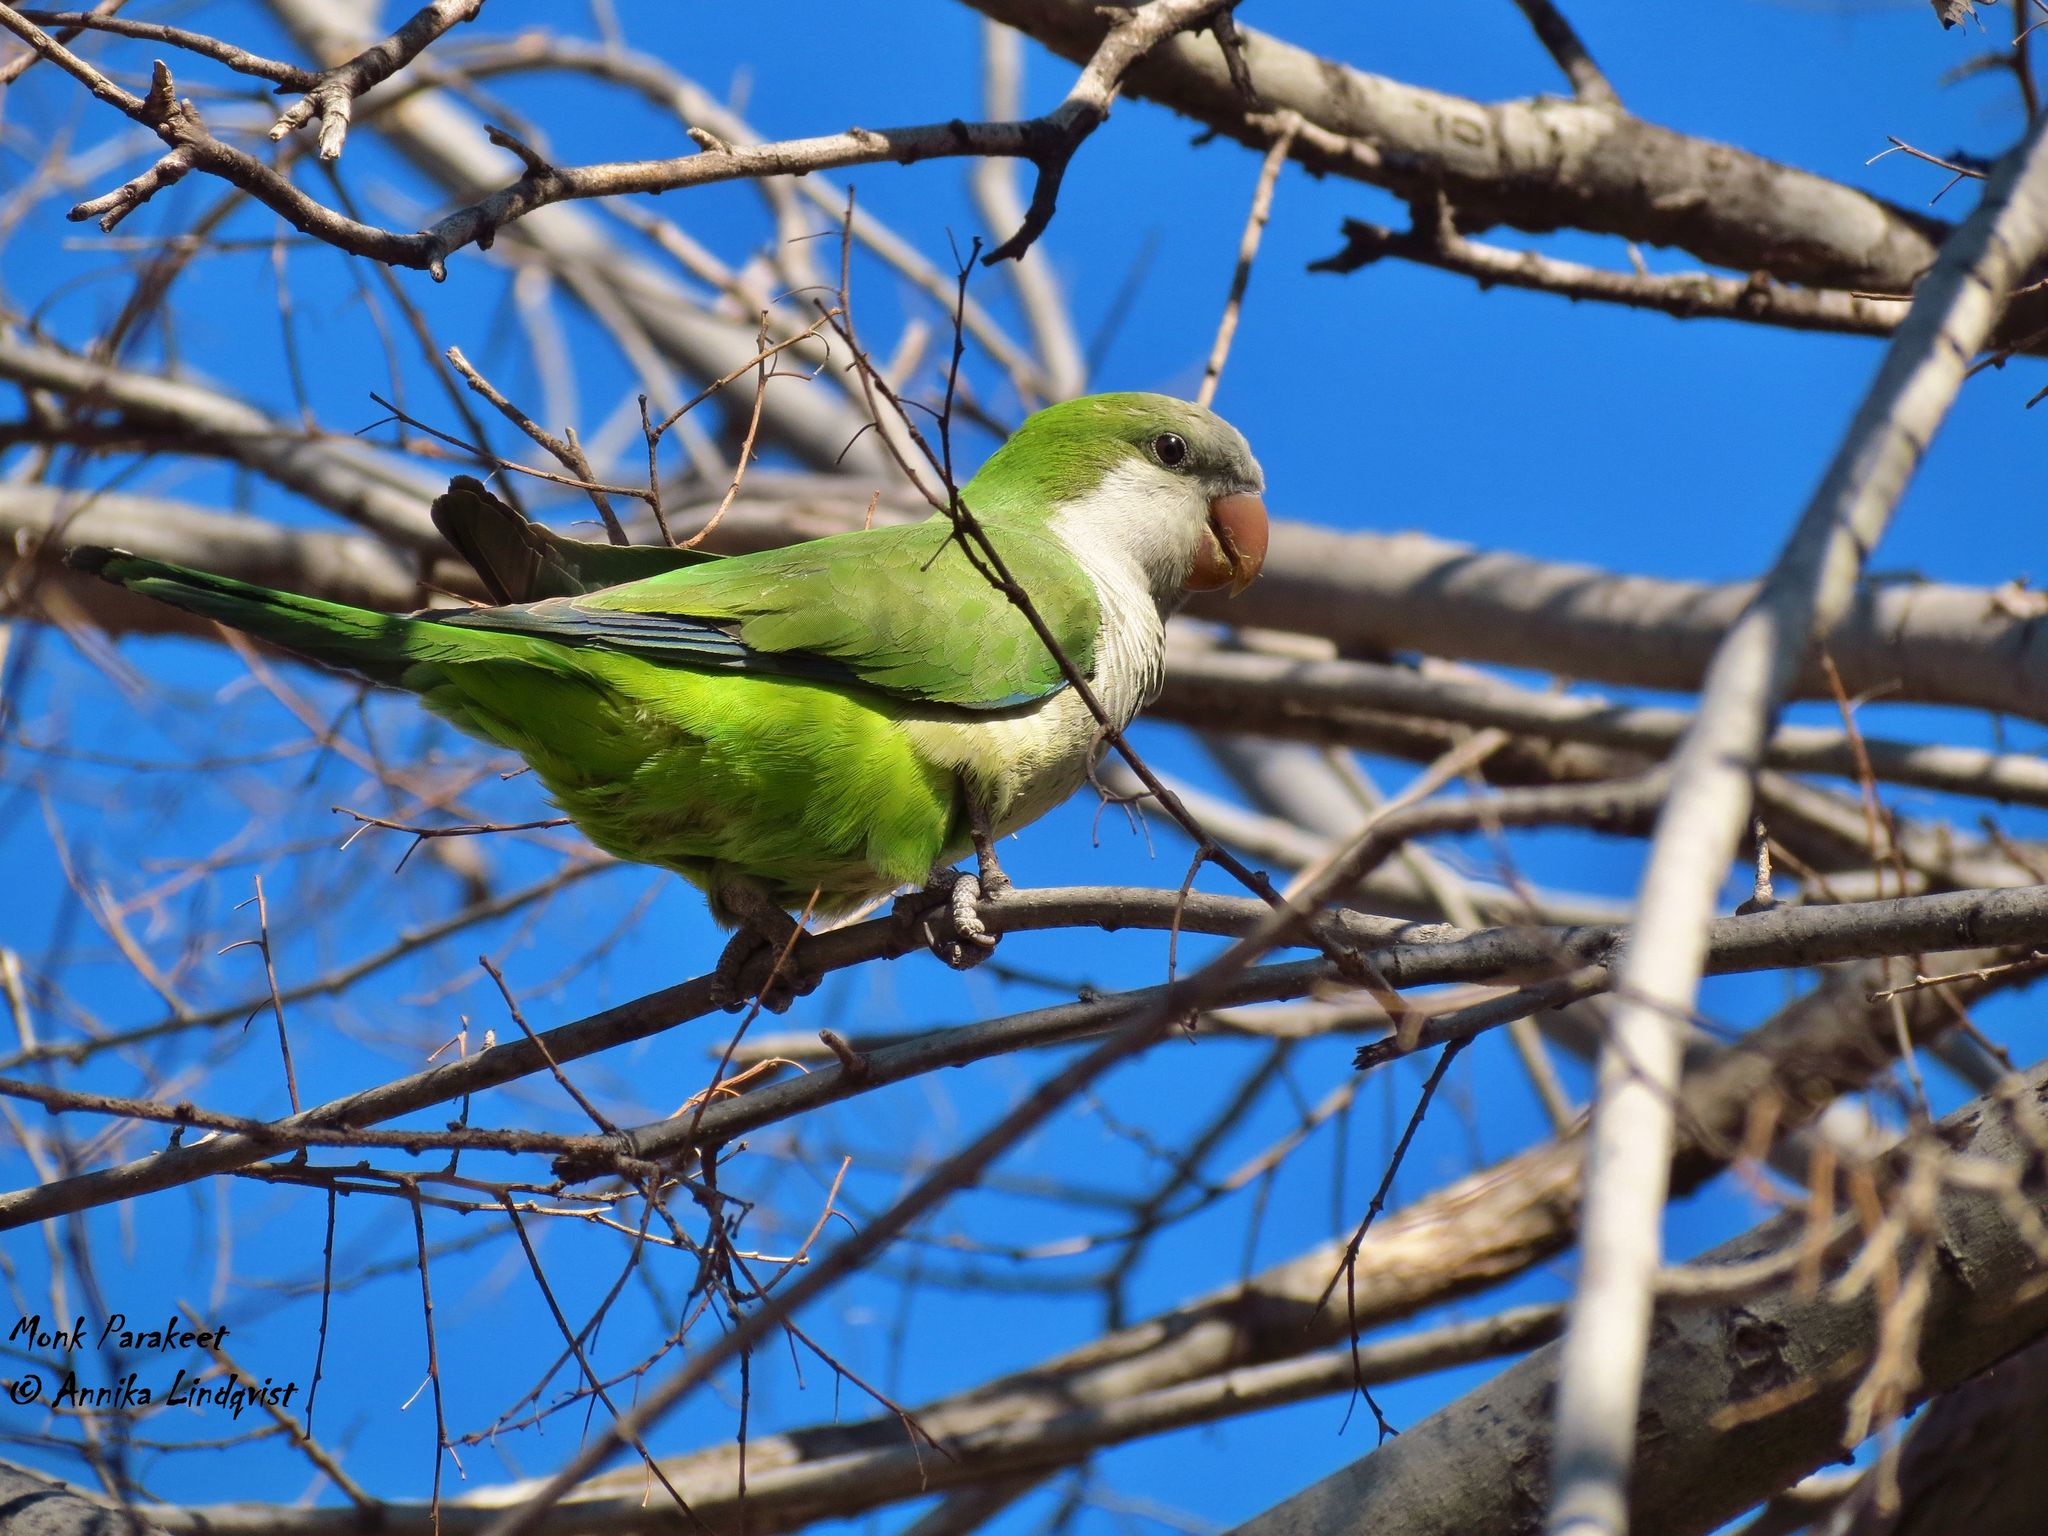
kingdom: Animalia
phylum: Chordata
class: Aves
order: Psittaciformes
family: Psittacidae
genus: Myiopsitta
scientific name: Myiopsitta monachus
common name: Monk parakeet
